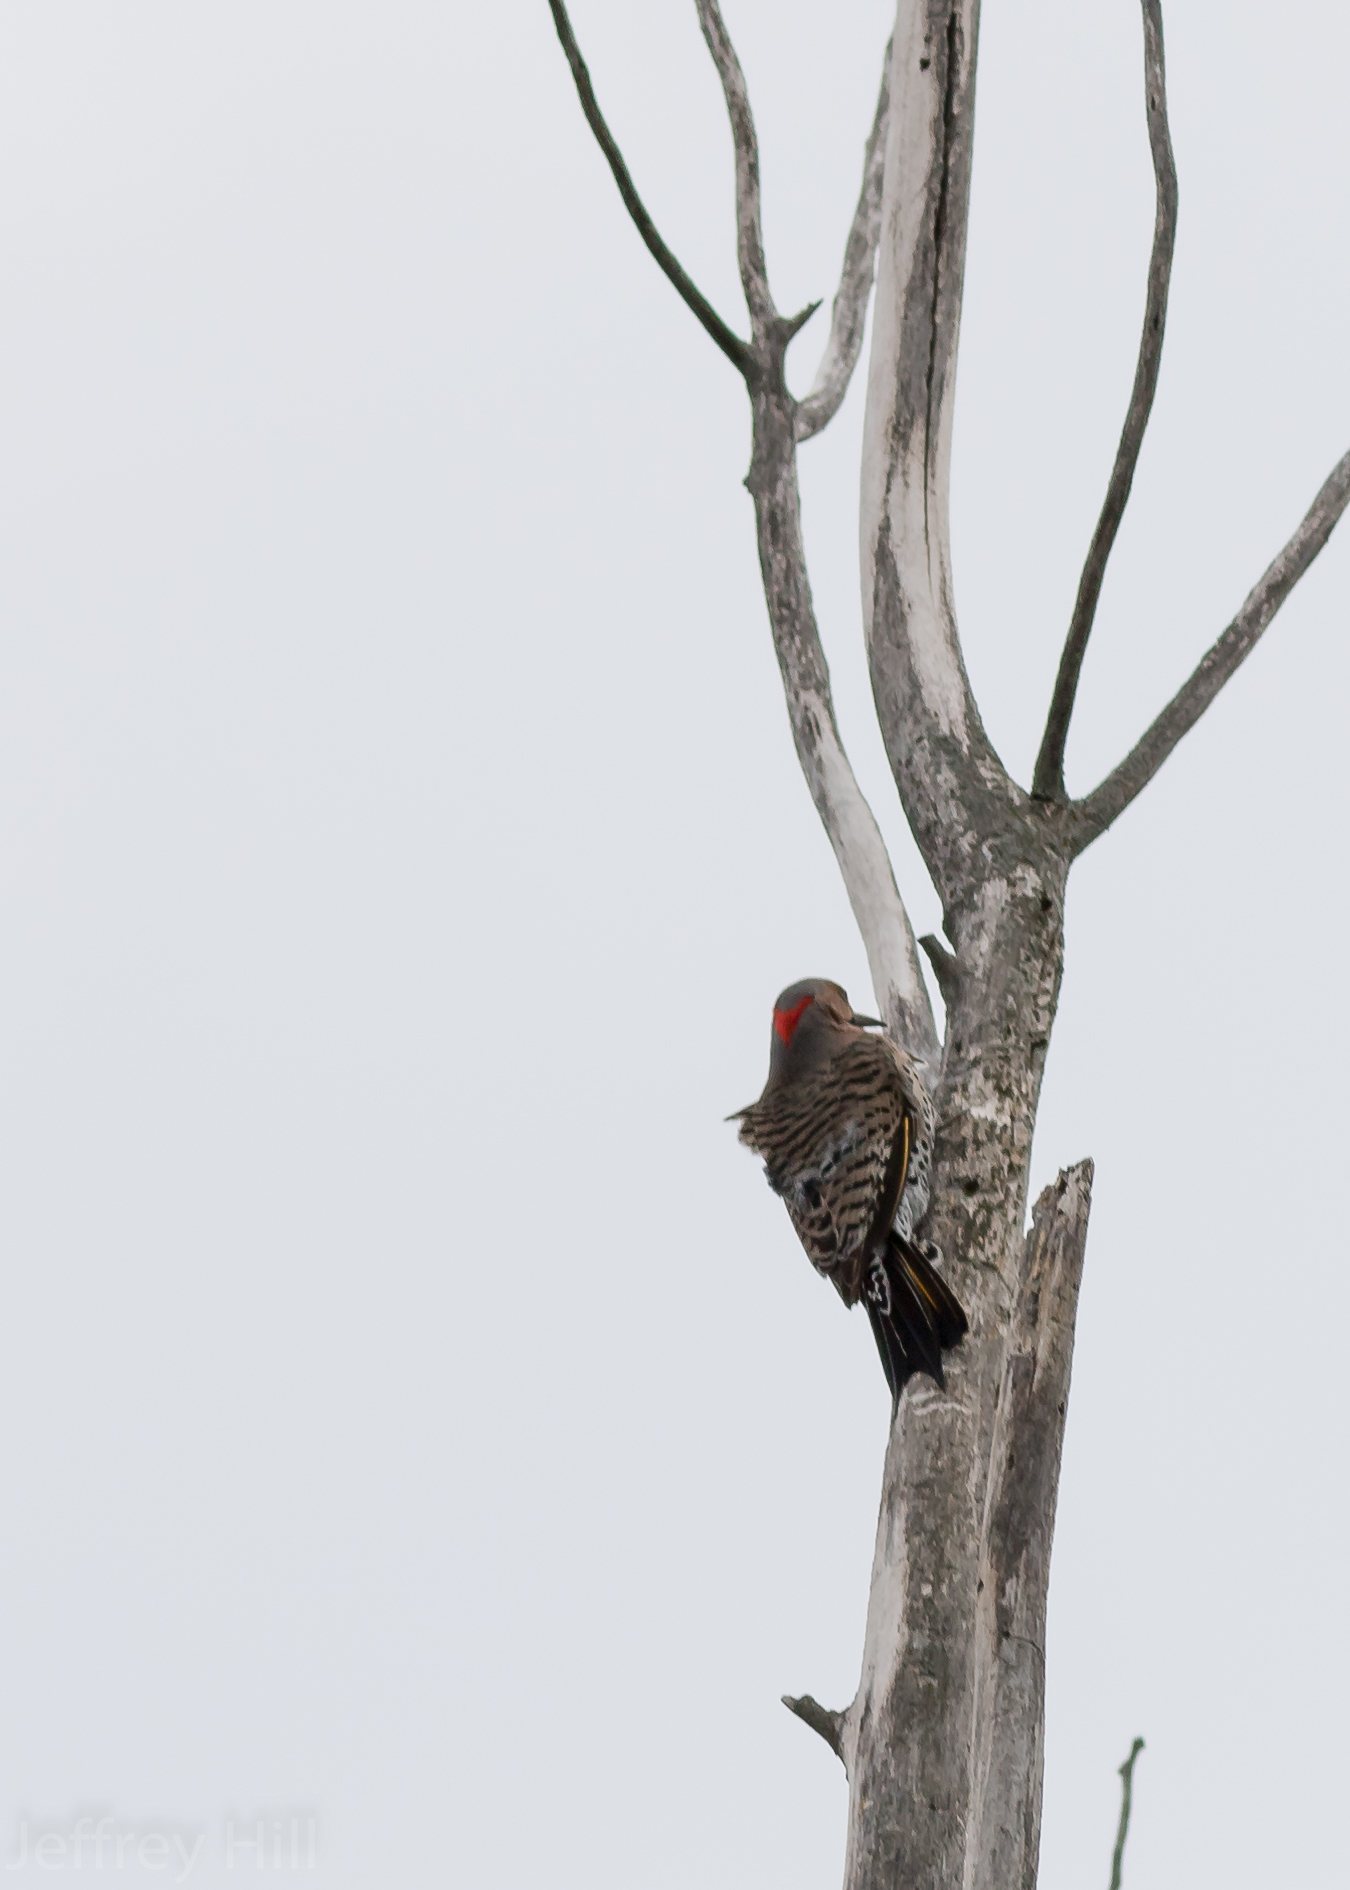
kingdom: Animalia
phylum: Chordata
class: Aves
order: Piciformes
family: Picidae
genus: Colaptes
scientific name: Colaptes auratus
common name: Northern flicker
